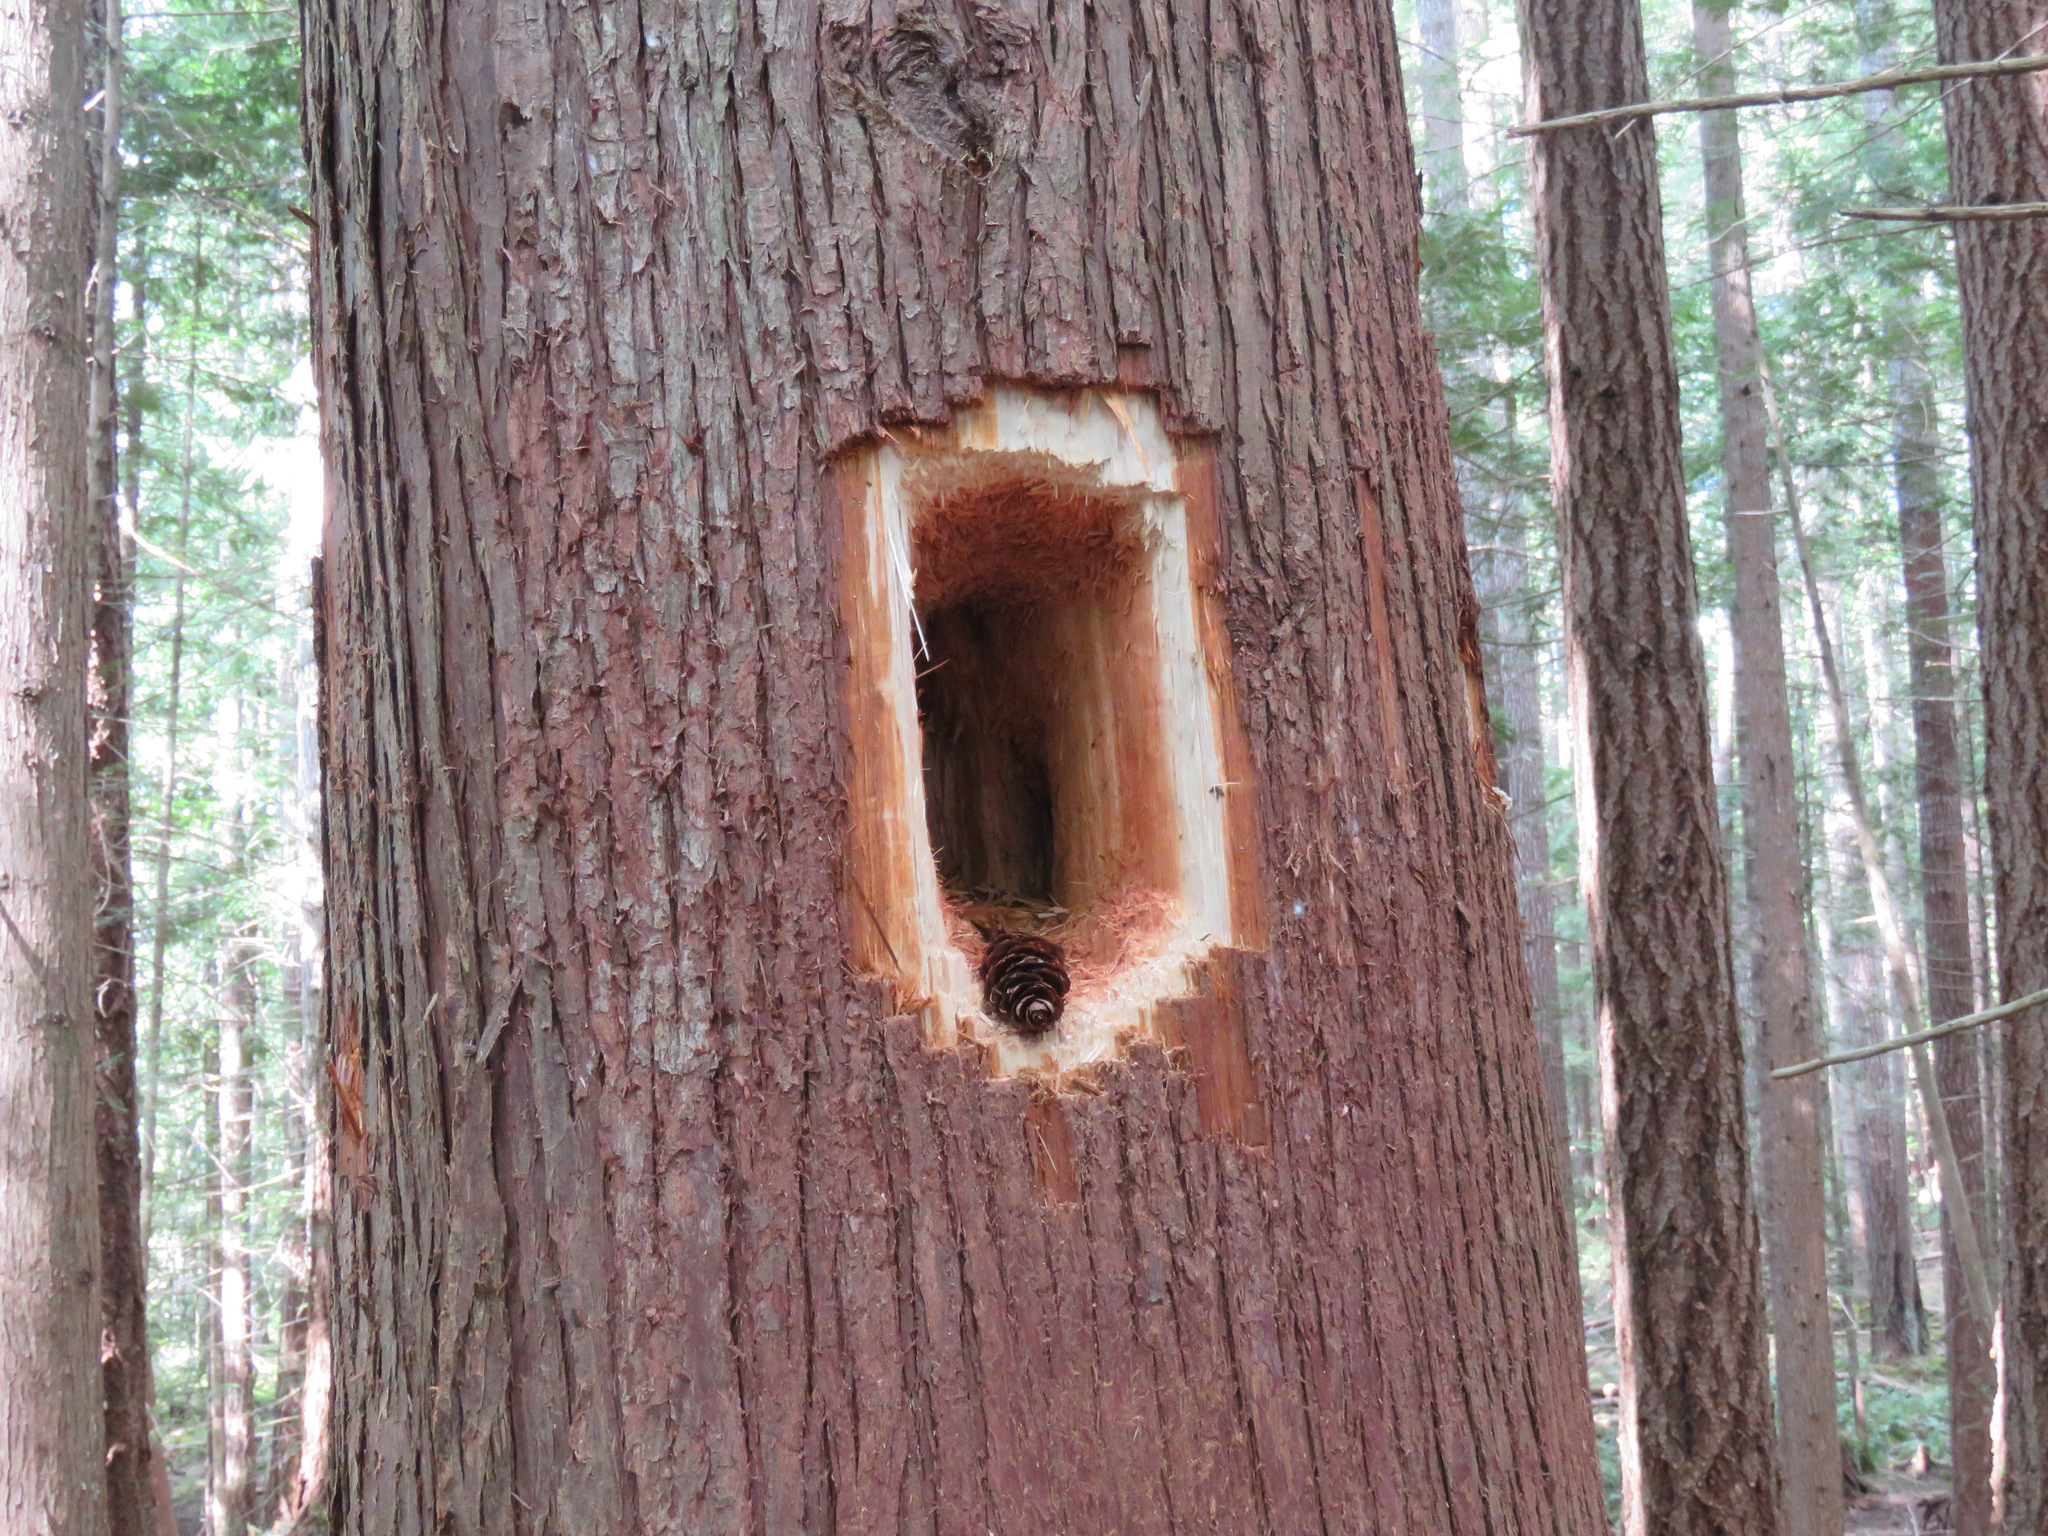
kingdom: Animalia
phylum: Chordata
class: Aves
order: Piciformes
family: Picidae
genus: Dryocopus
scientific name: Dryocopus pileatus
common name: Pileated woodpecker
